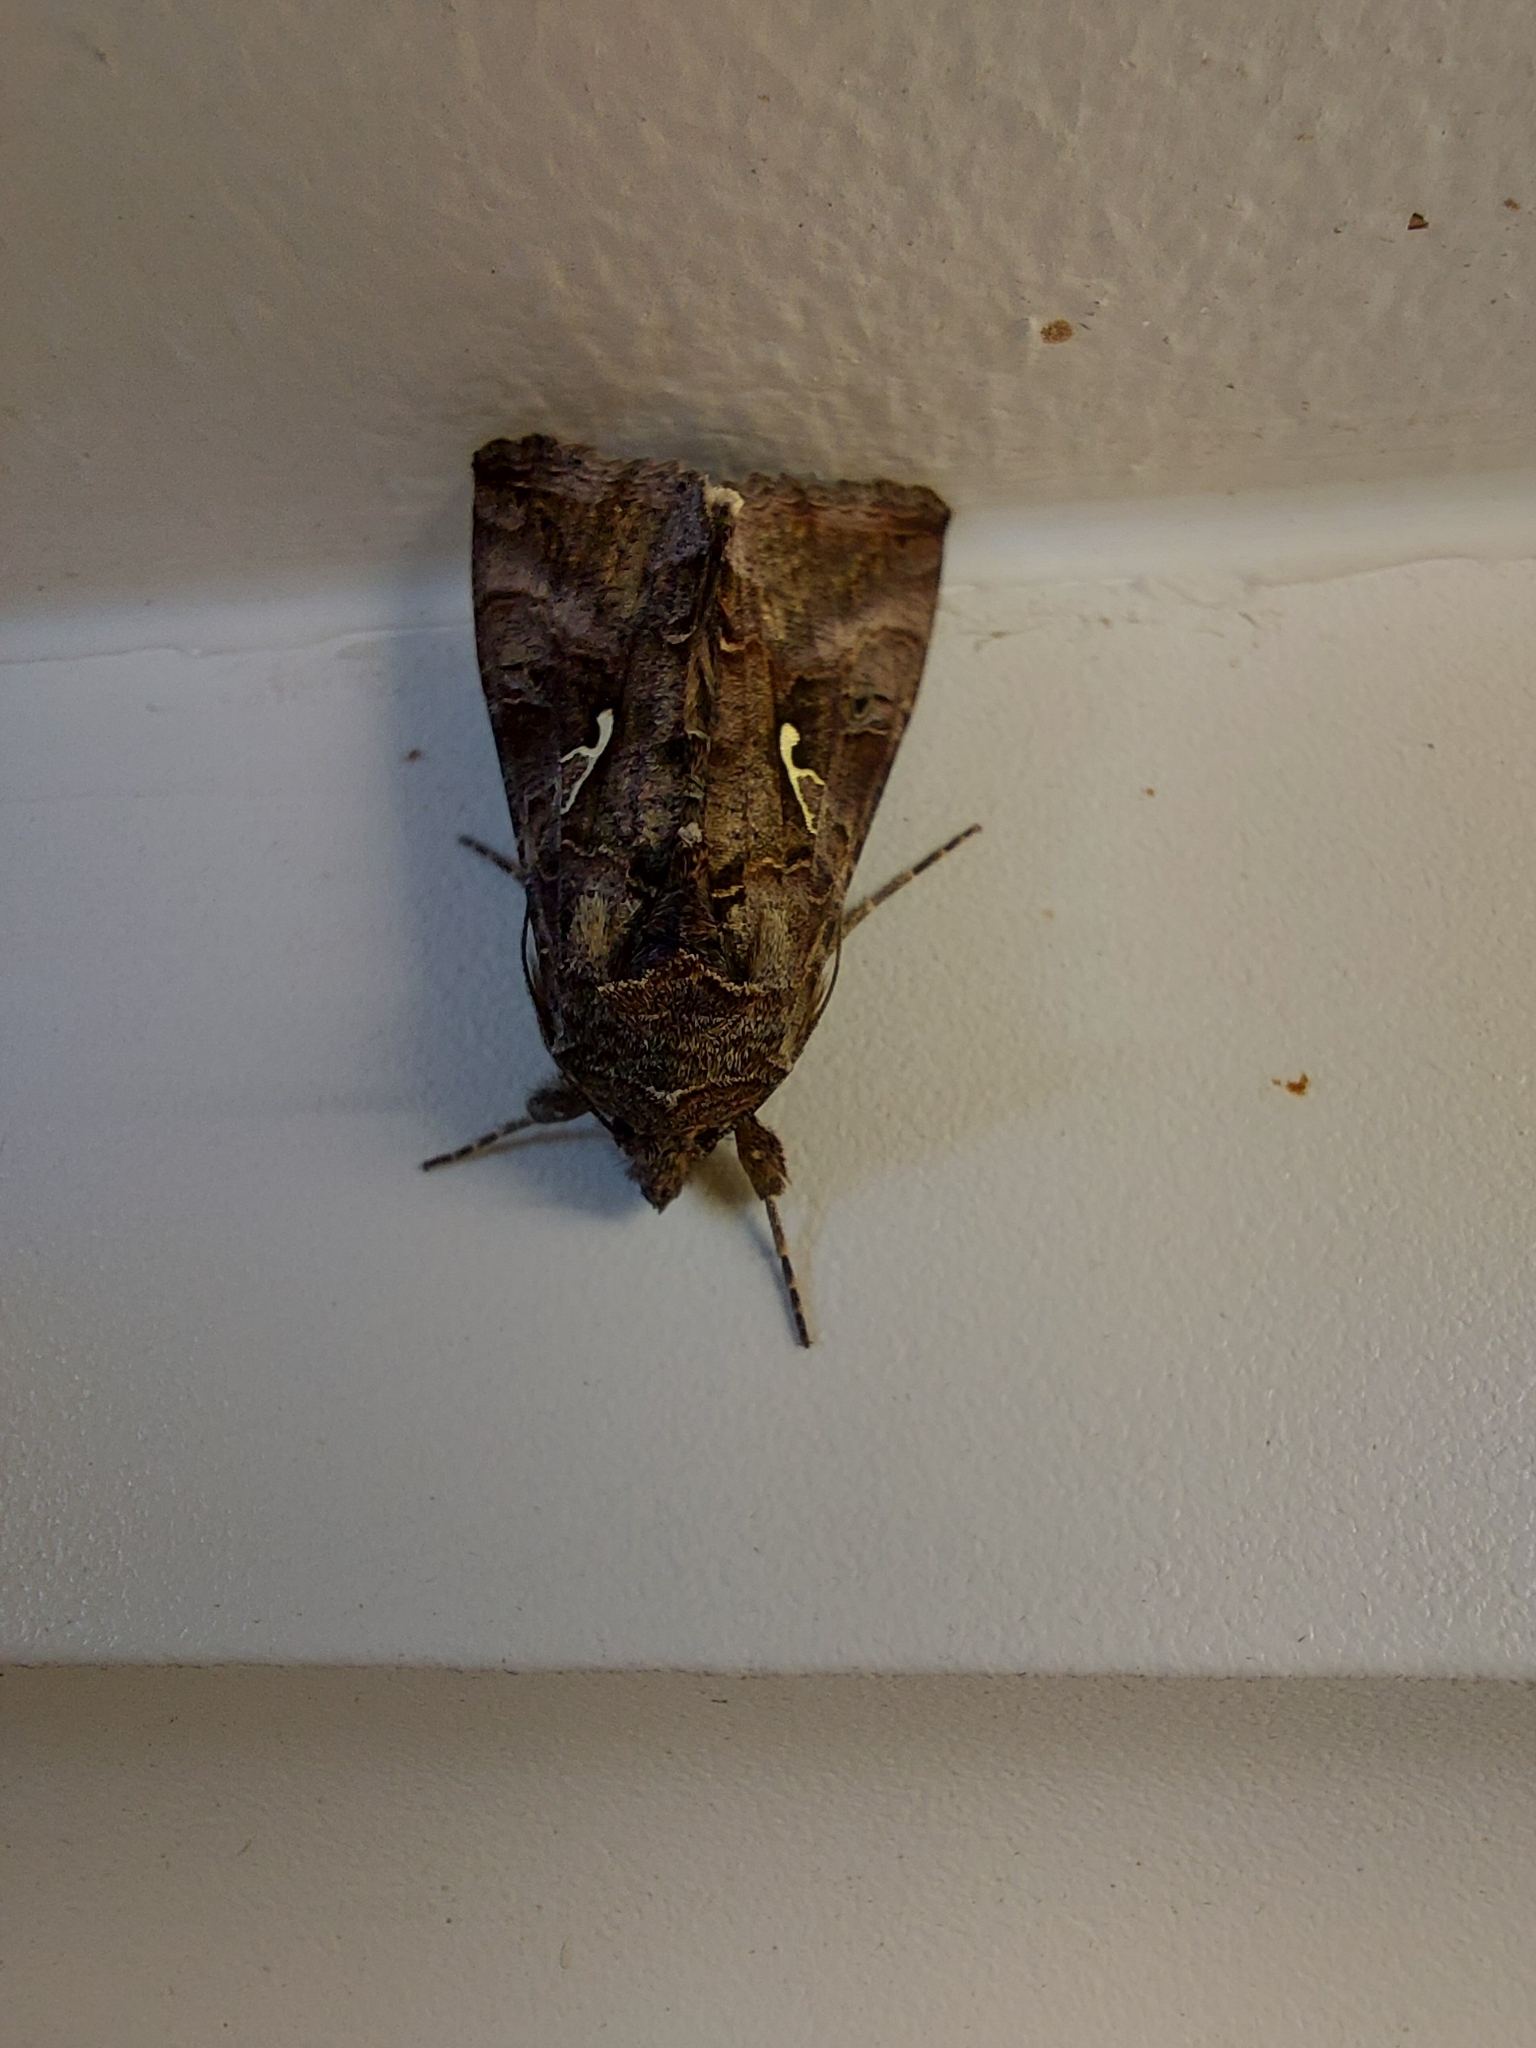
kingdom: Animalia
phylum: Arthropoda
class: Insecta
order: Lepidoptera
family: Noctuidae
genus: Autographa
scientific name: Autographa gamma
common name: Silver y
